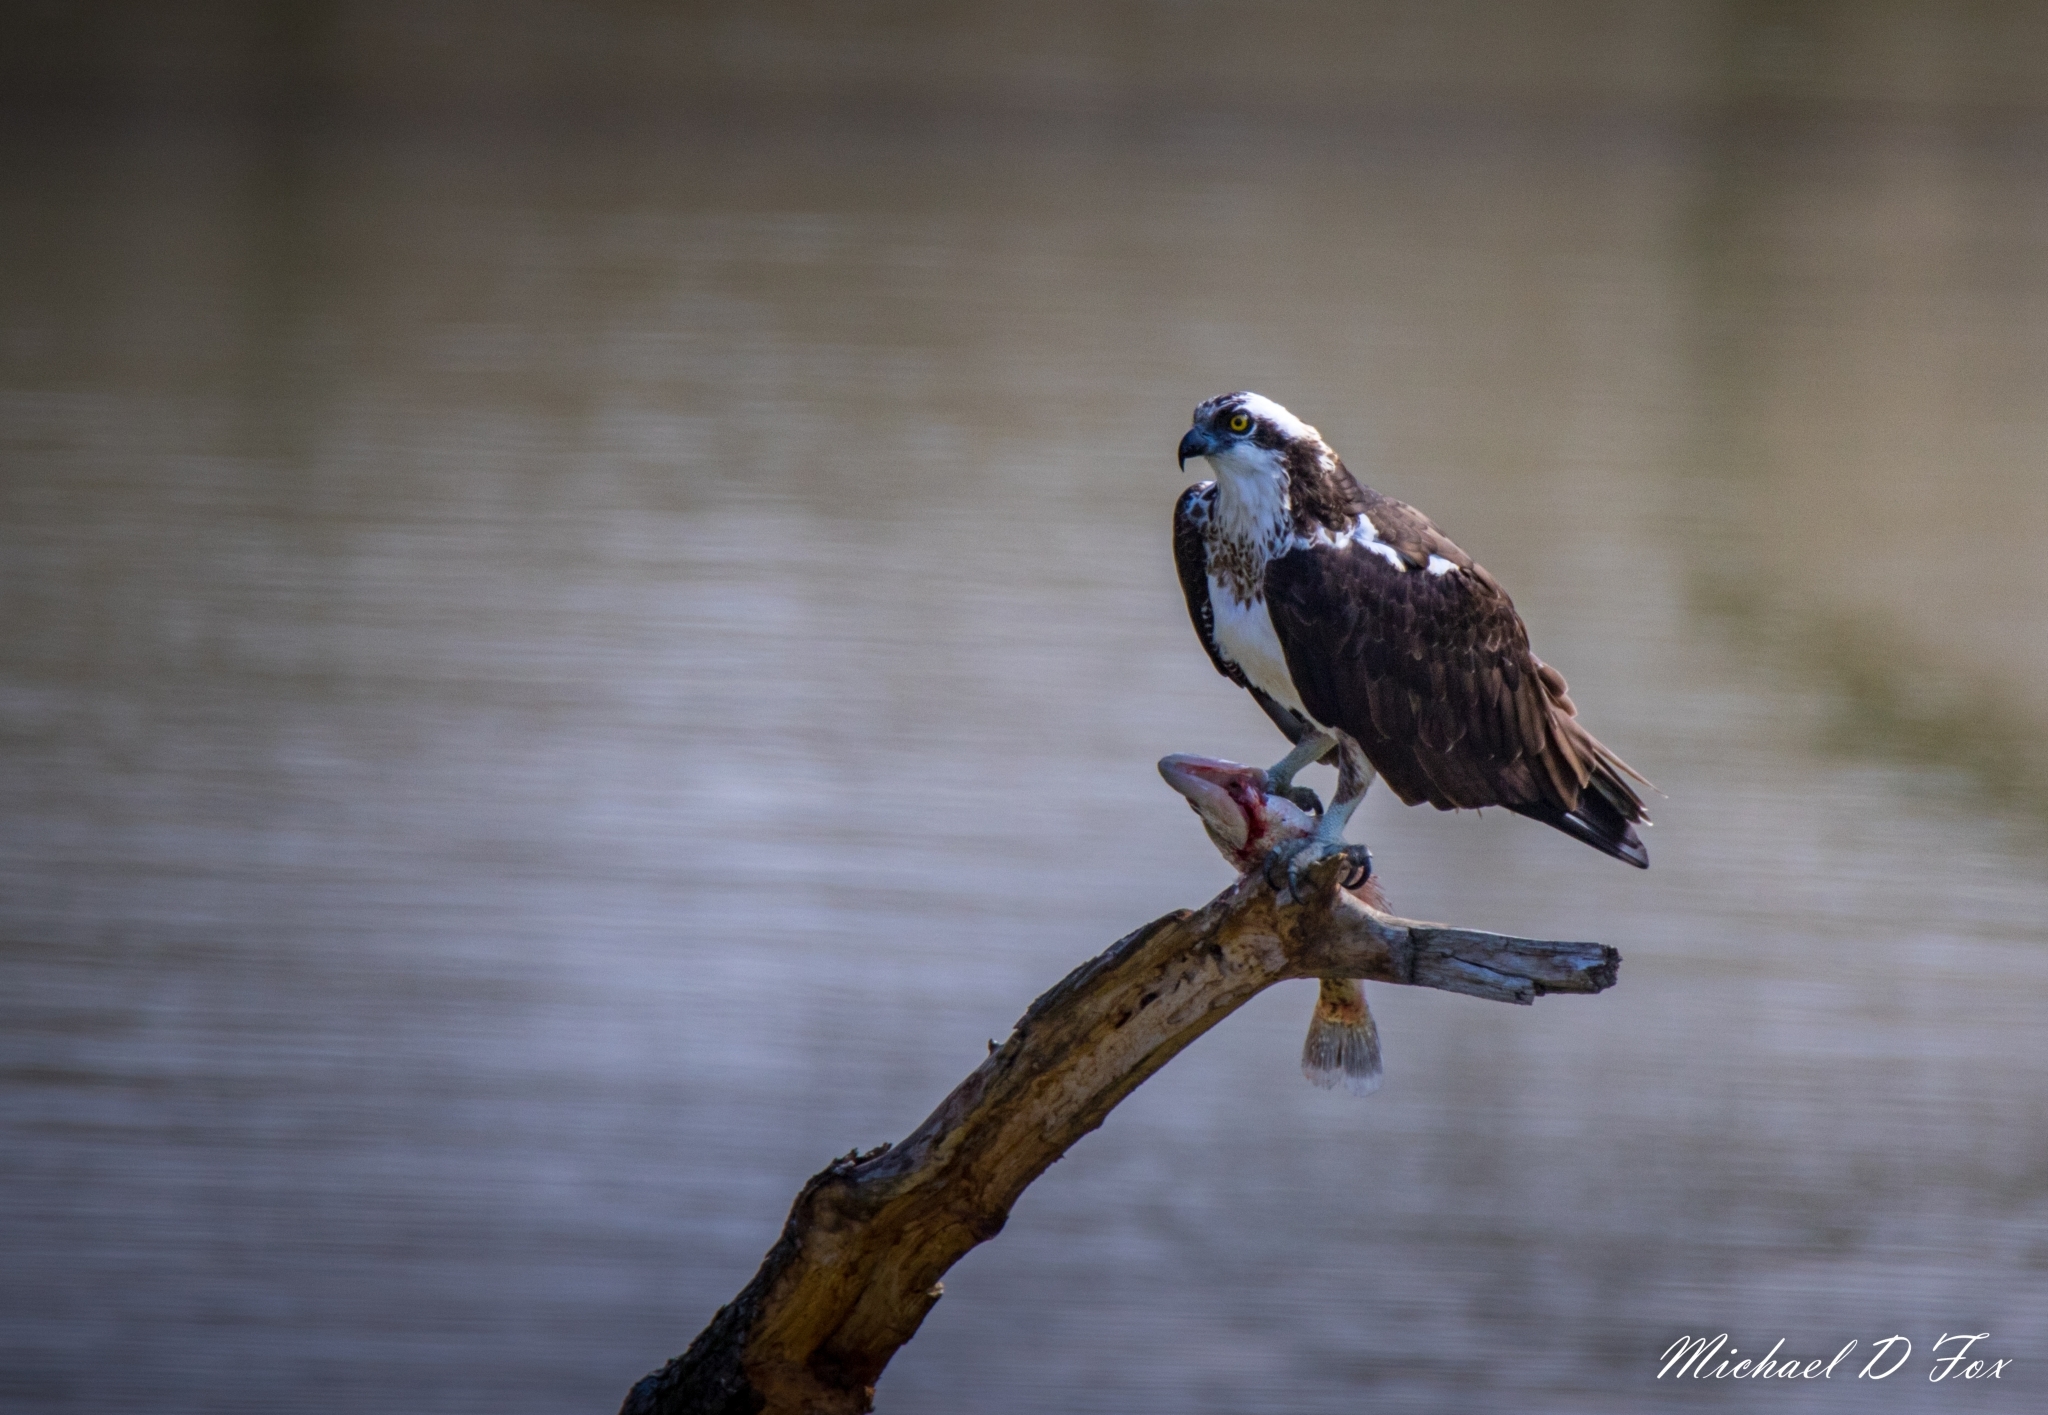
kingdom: Animalia
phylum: Chordata
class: Aves
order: Accipitriformes
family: Pandionidae
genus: Pandion
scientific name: Pandion haliaetus
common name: Osprey
